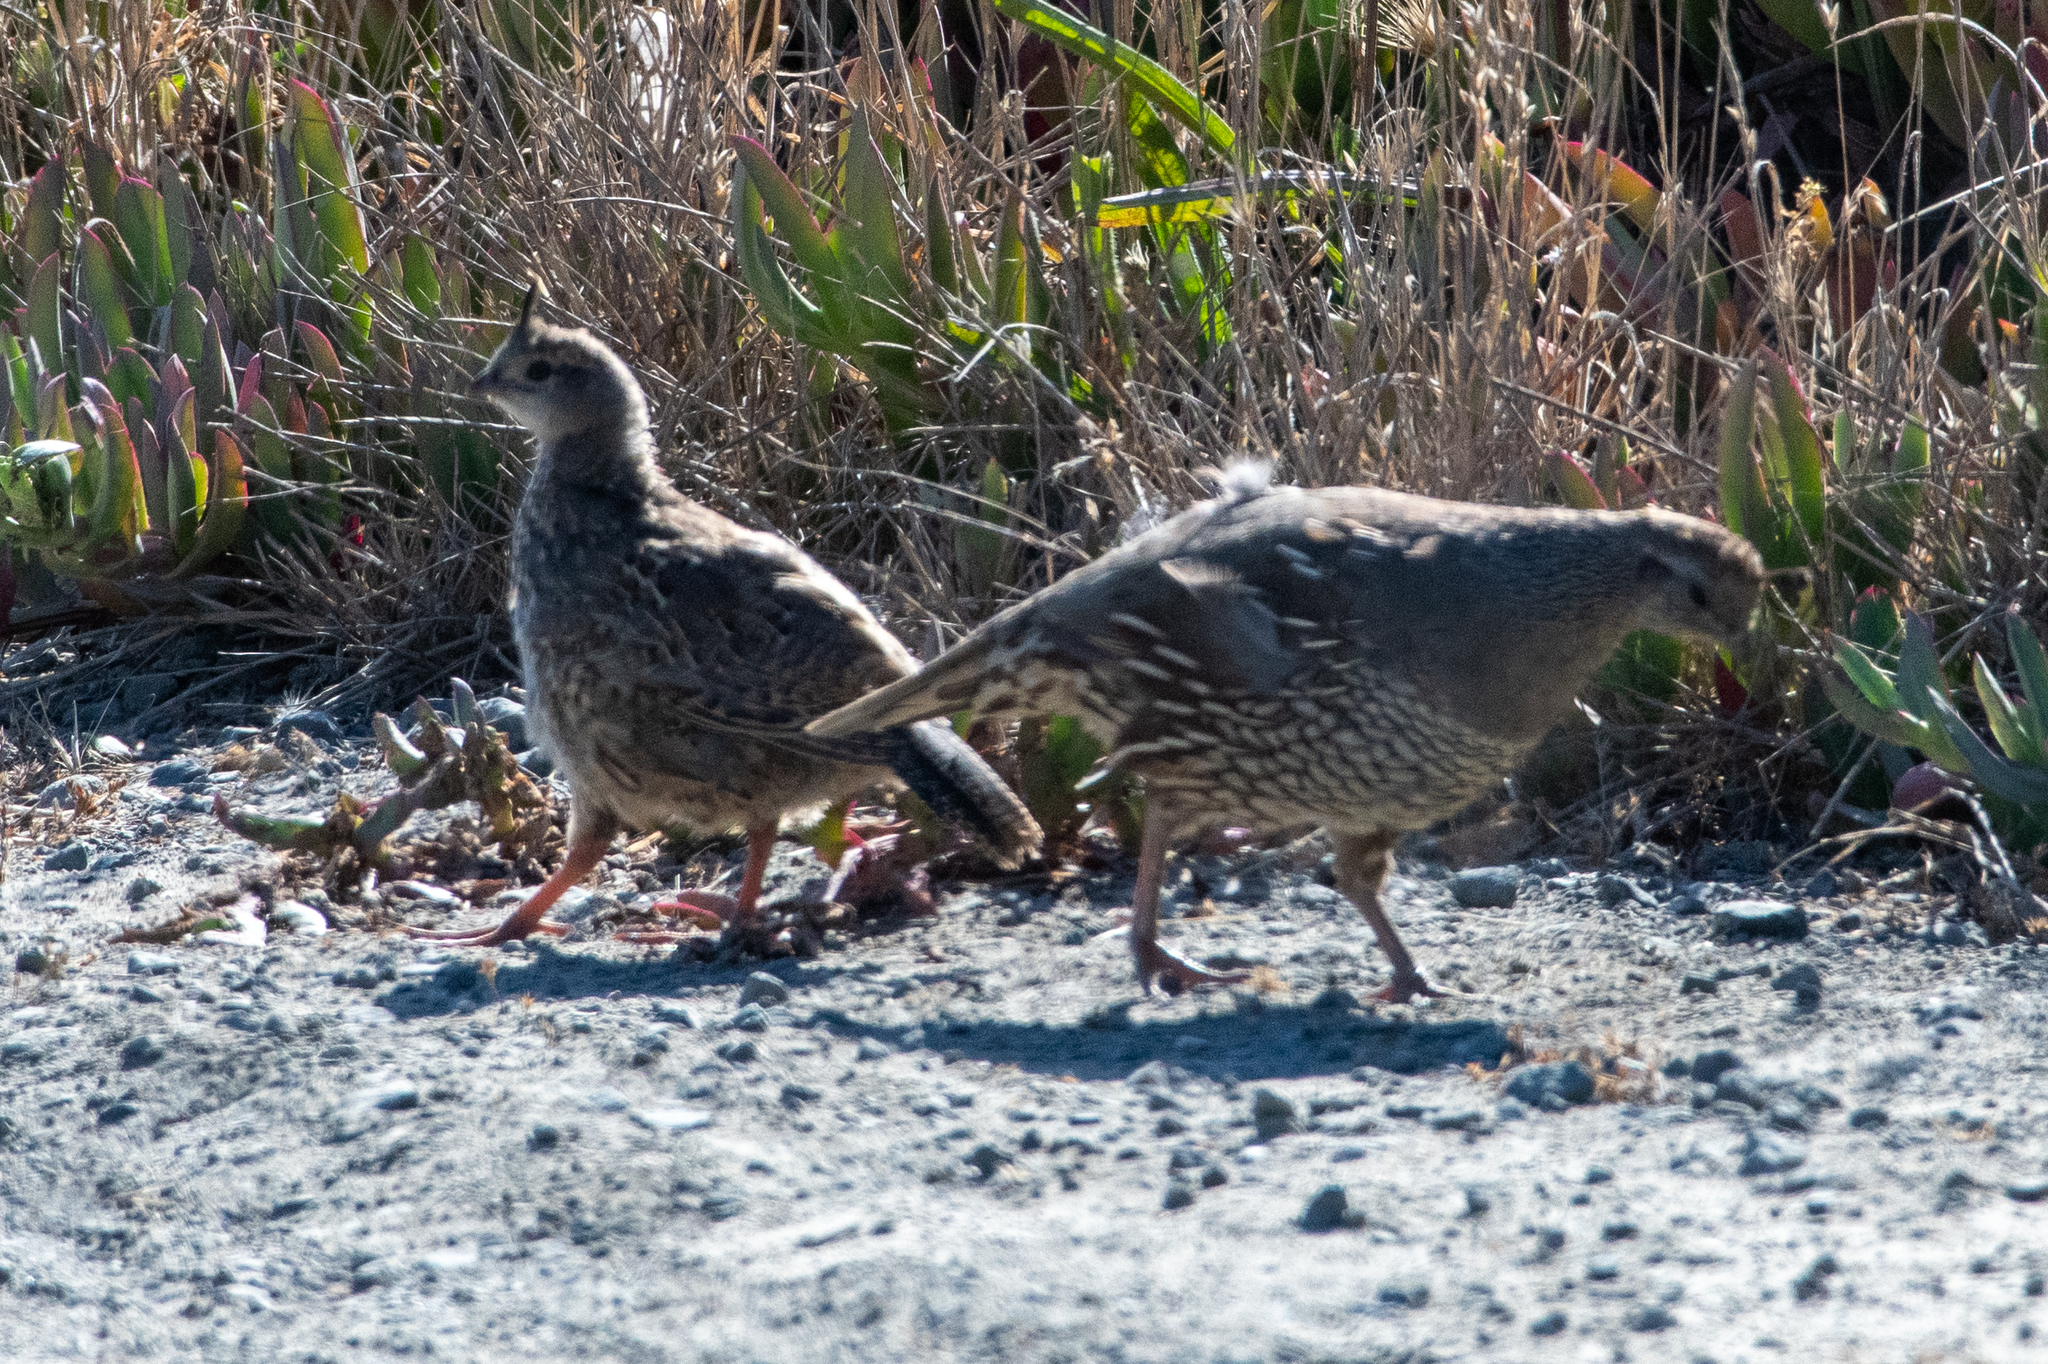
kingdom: Animalia
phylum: Chordata
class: Aves
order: Galliformes
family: Odontophoridae
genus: Callipepla
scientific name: Callipepla californica
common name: California quail
